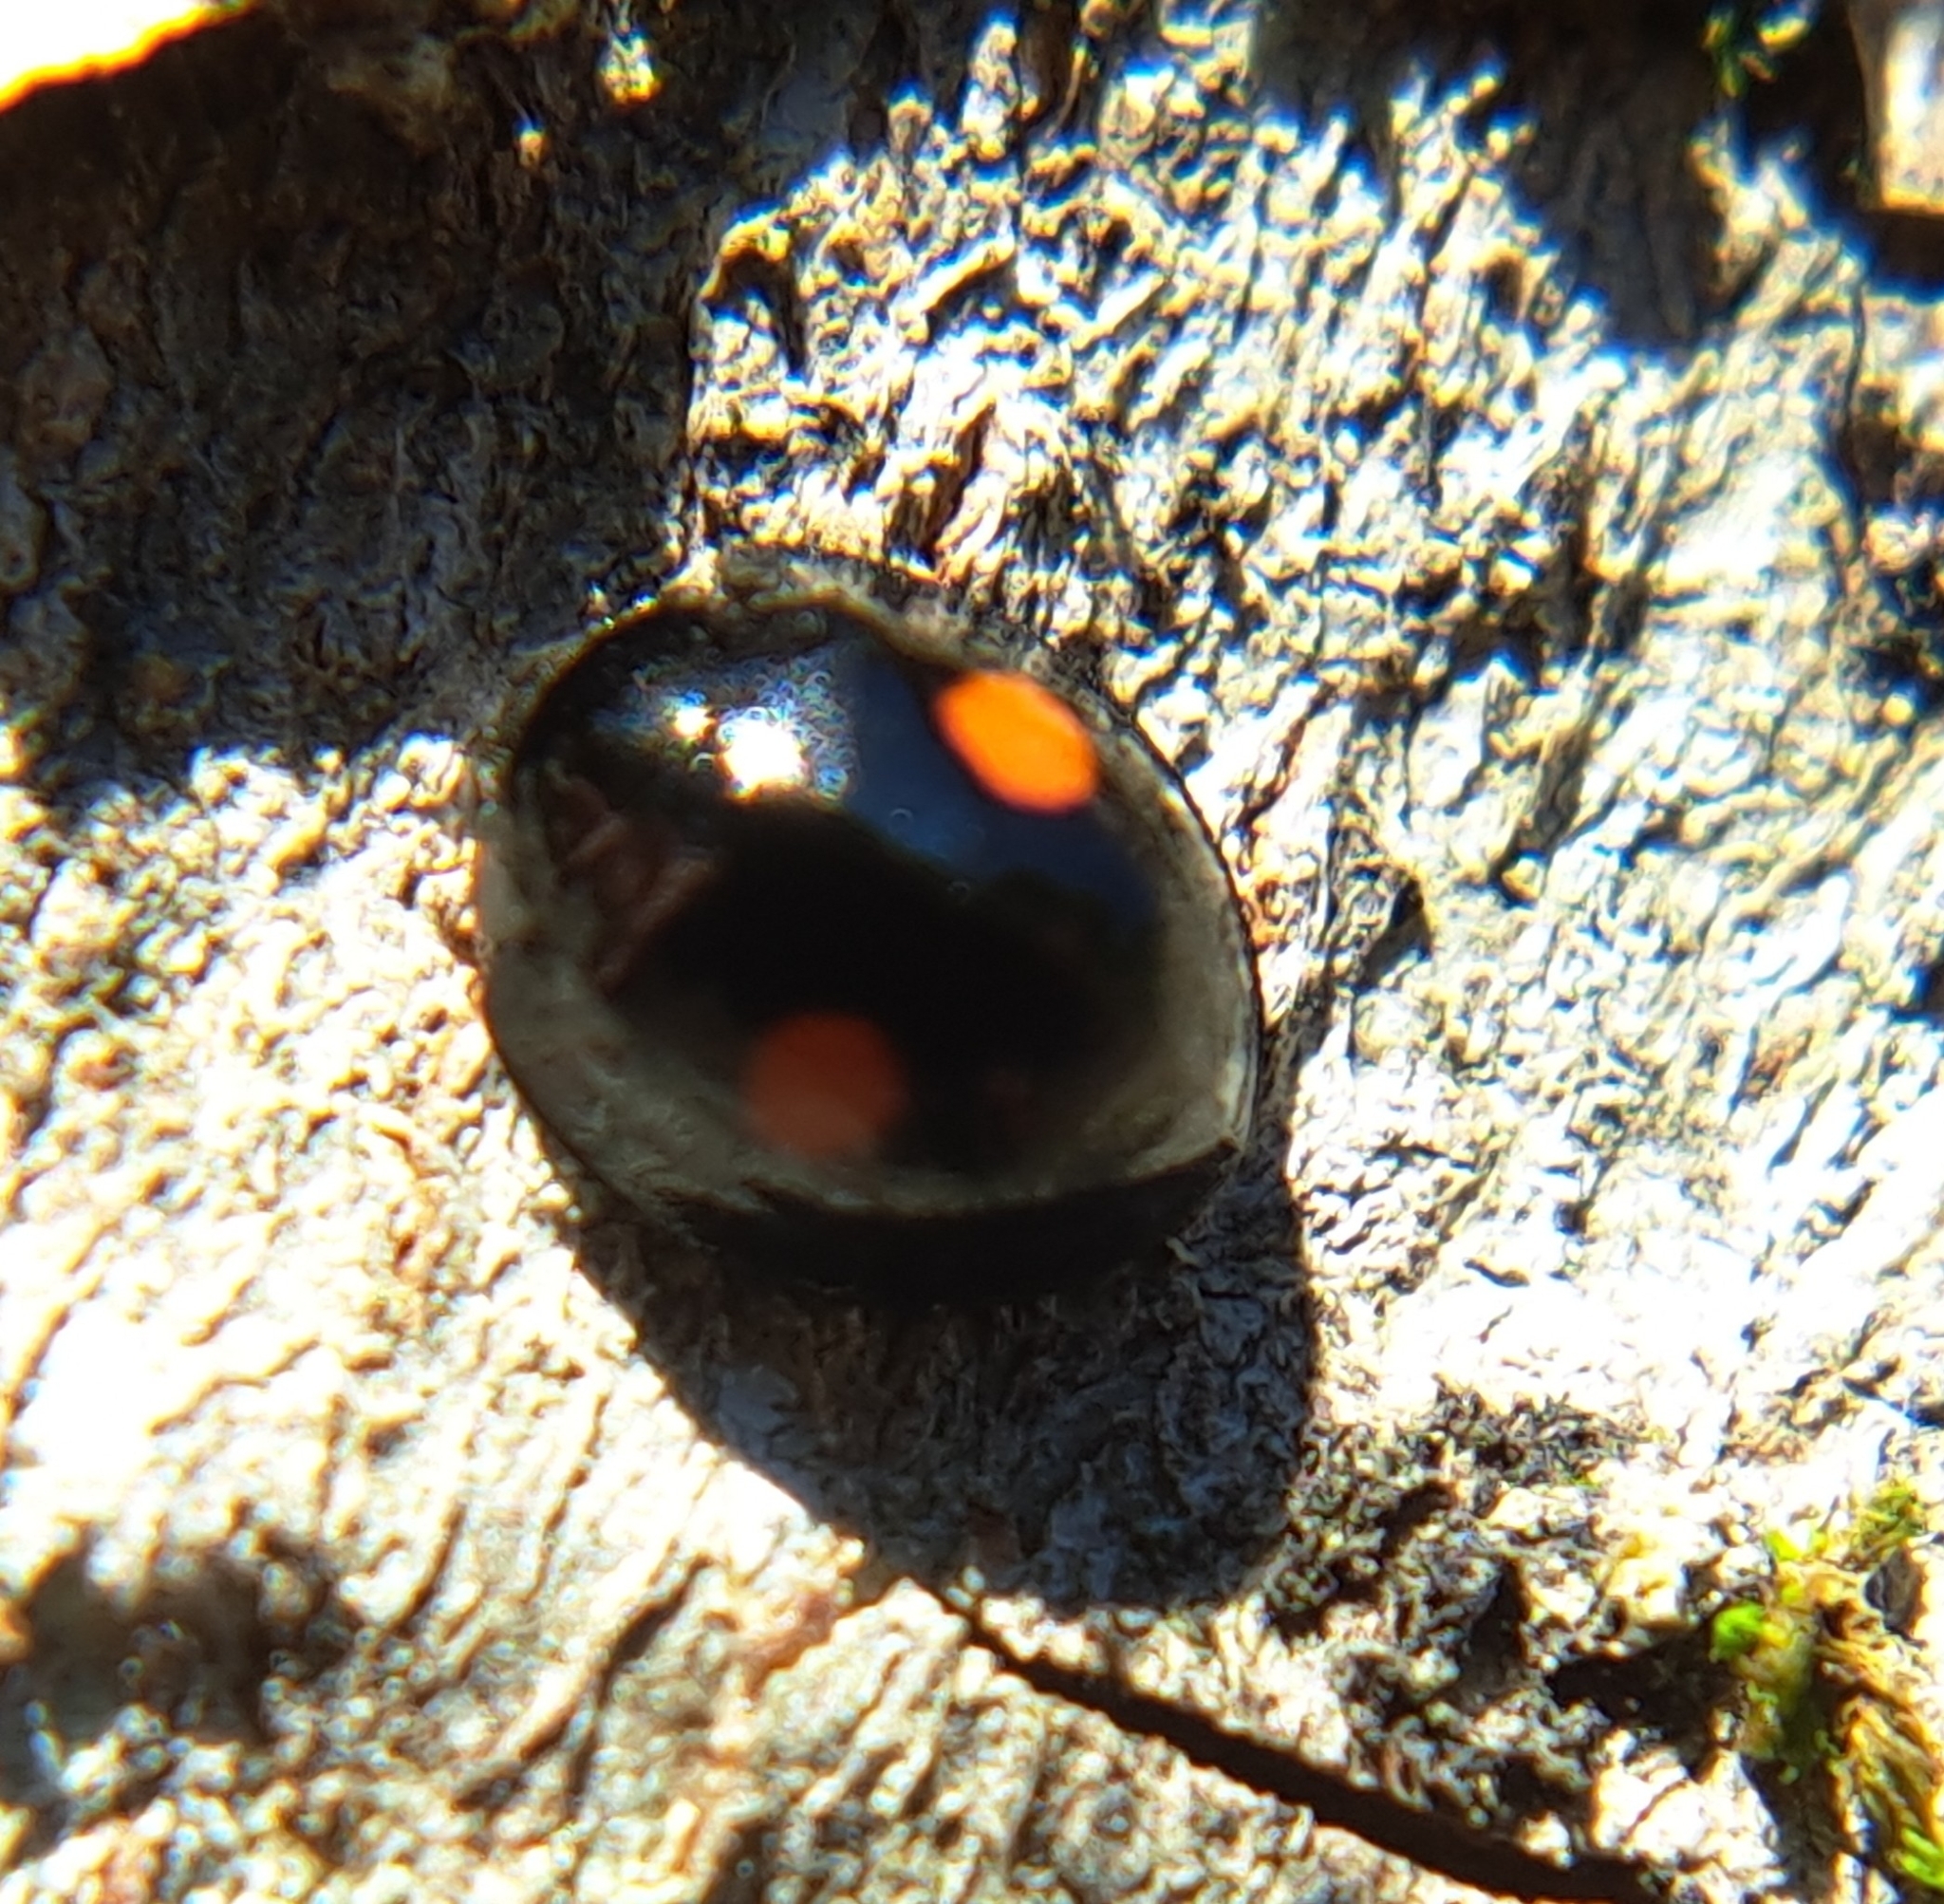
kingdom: Animalia
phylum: Arthropoda
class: Insecta
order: Coleoptera
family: Coccinellidae
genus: Chilocorus
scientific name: Chilocorus stigma
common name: Twicestabbed lady beetle
